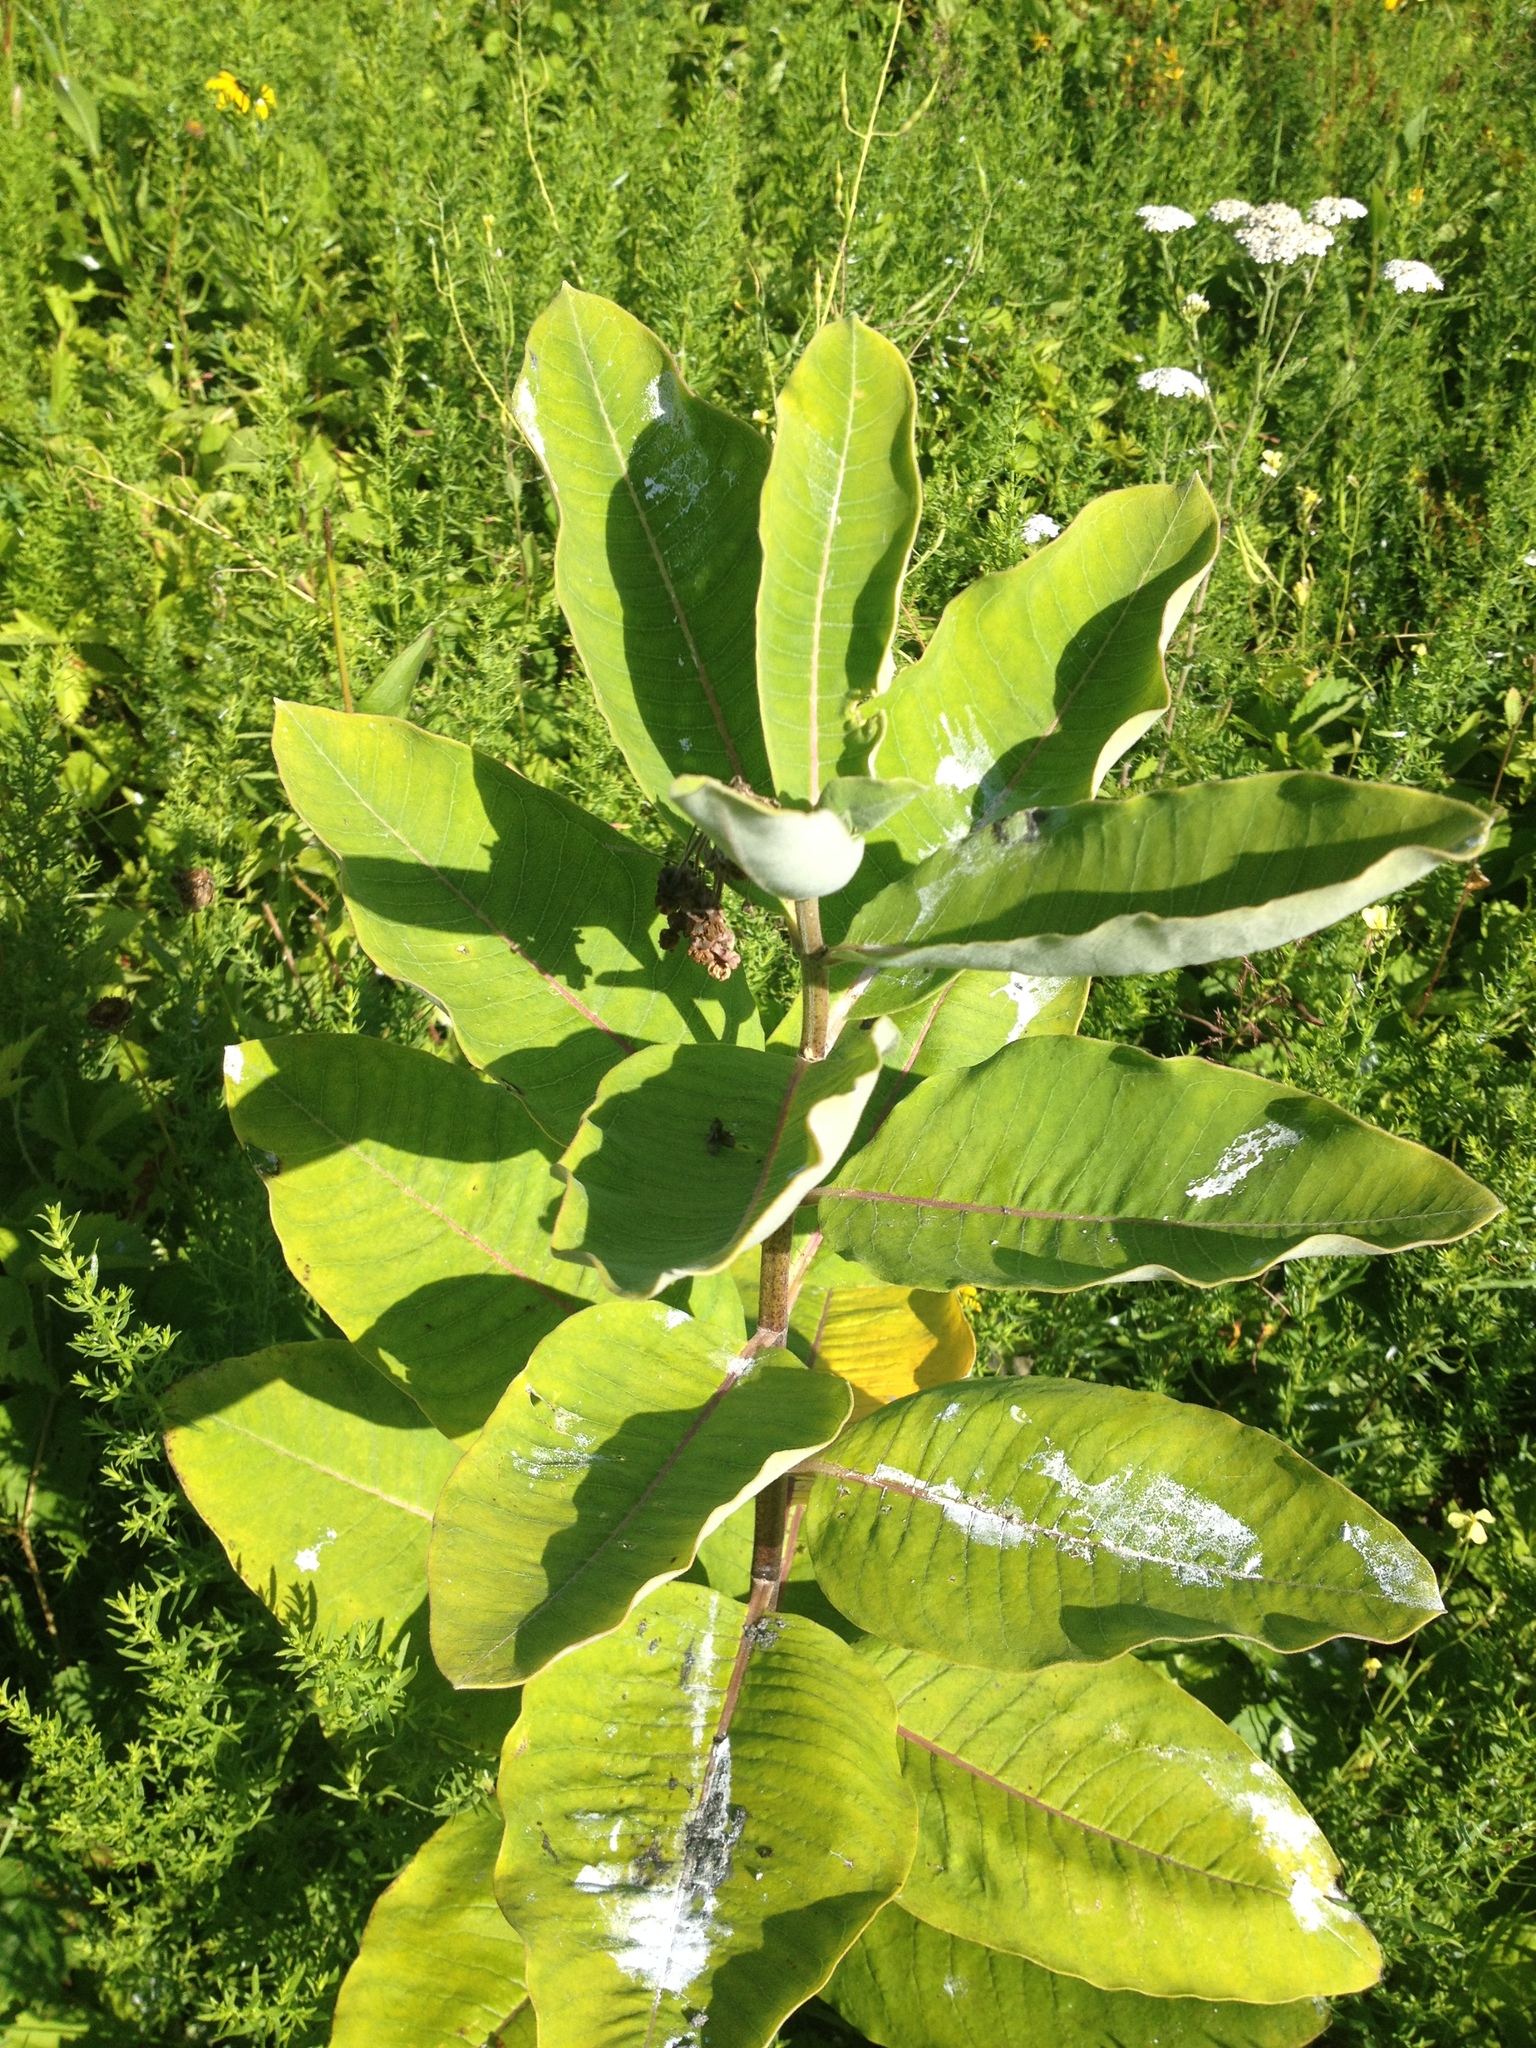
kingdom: Plantae
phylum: Tracheophyta
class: Magnoliopsida
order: Gentianales
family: Apocynaceae
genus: Asclepias
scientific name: Asclepias syriaca
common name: Common milkweed
